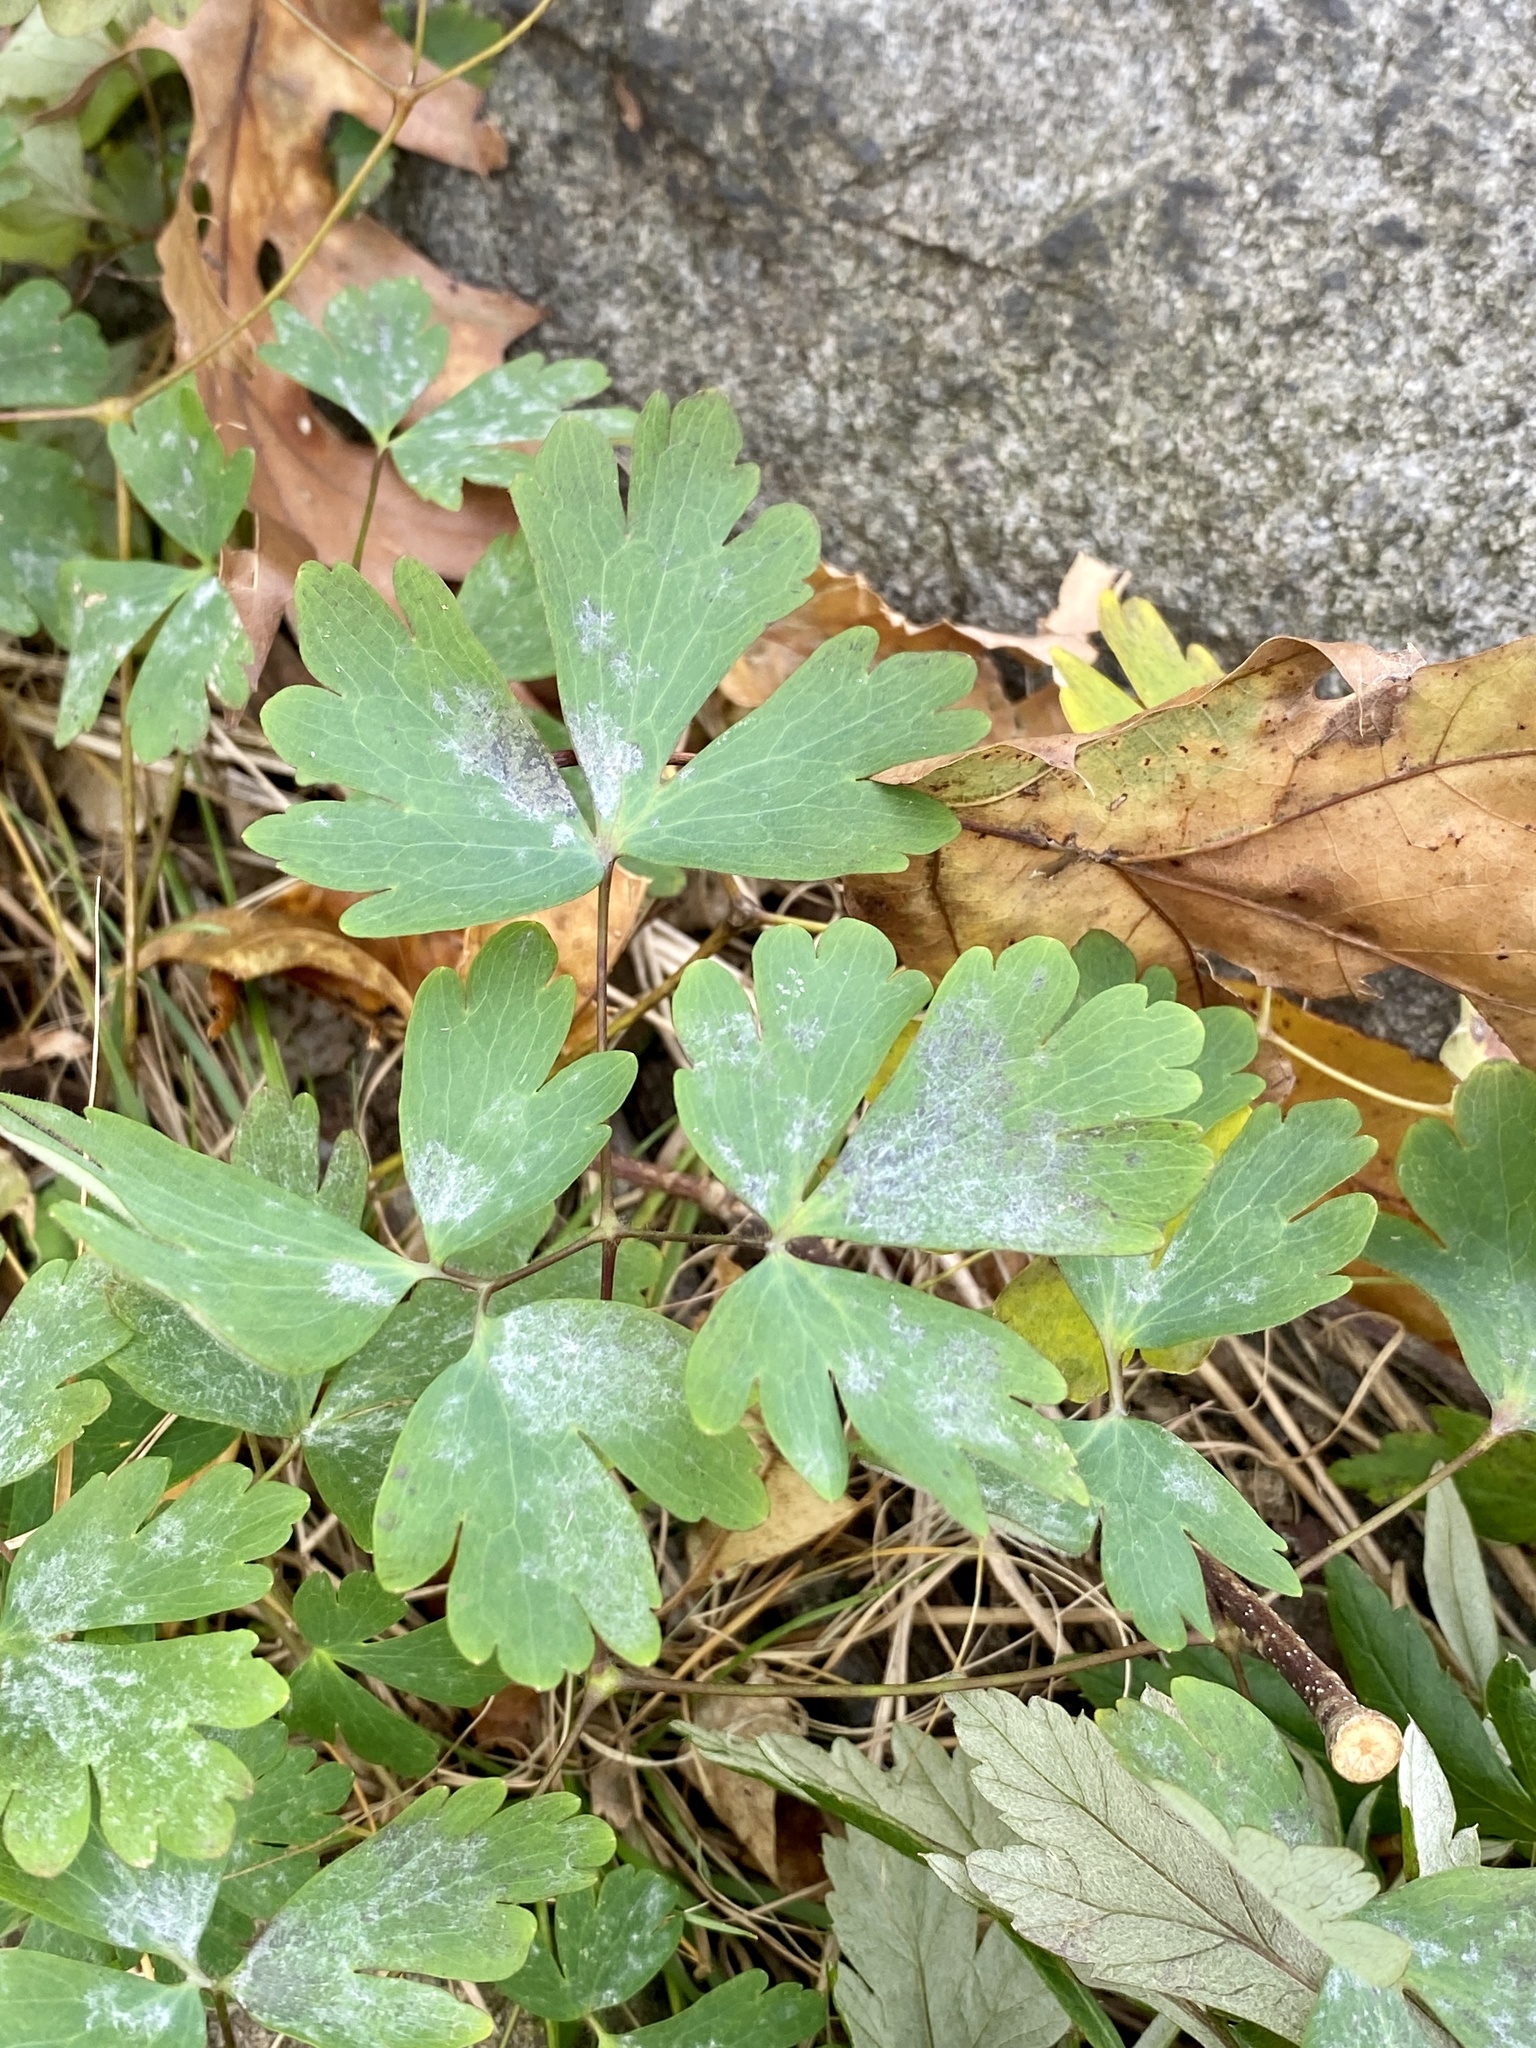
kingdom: Plantae
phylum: Tracheophyta
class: Magnoliopsida
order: Ranunculales
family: Ranunculaceae
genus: Aquilegia
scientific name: Aquilegia canadensis
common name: American columbine
